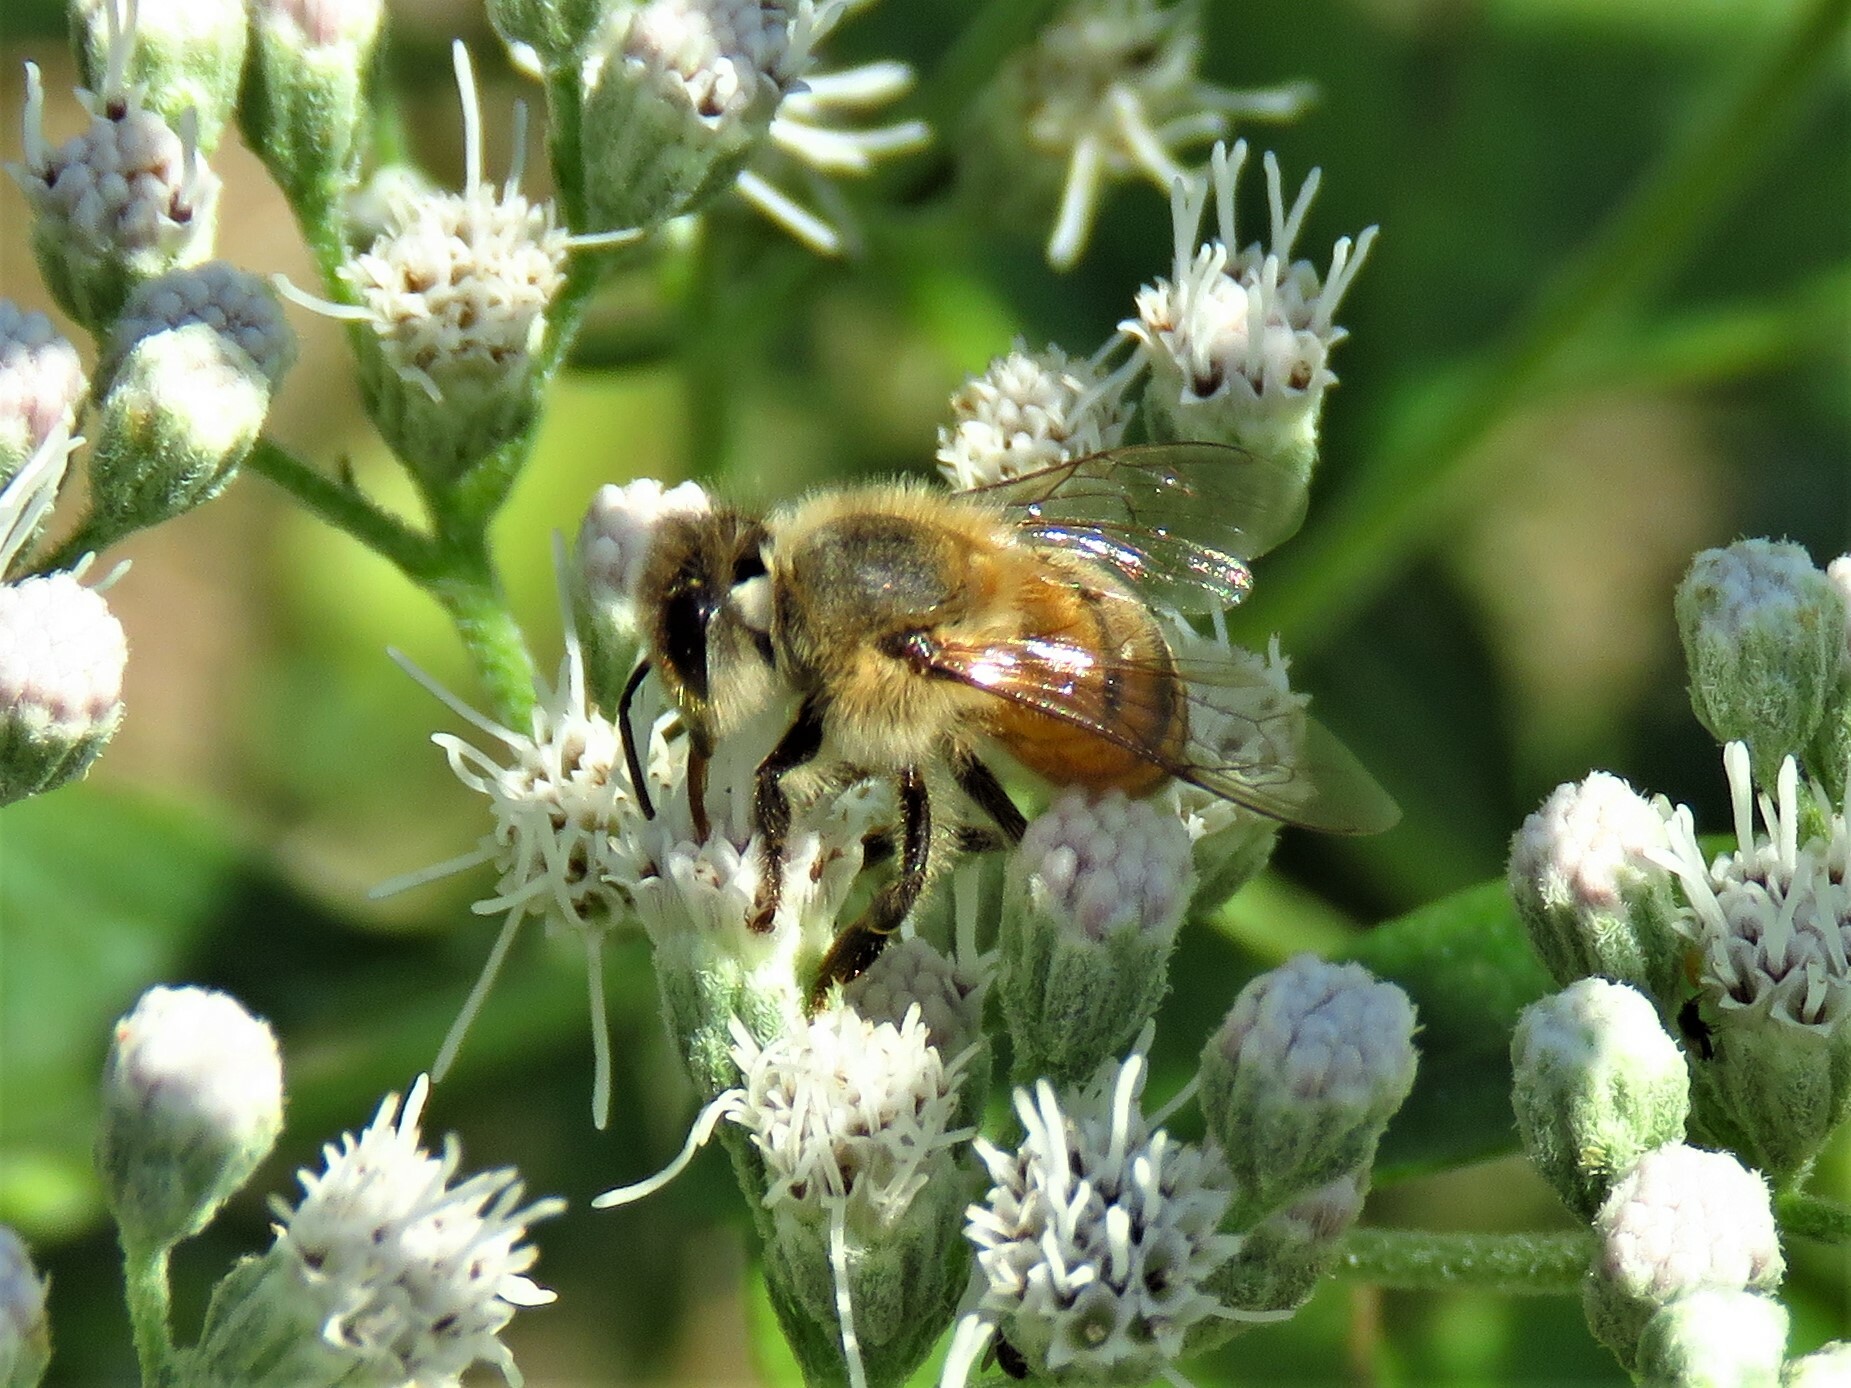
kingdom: Animalia
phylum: Arthropoda
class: Insecta
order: Hymenoptera
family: Apidae
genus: Apis
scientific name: Apis mellifera
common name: Honey bee
